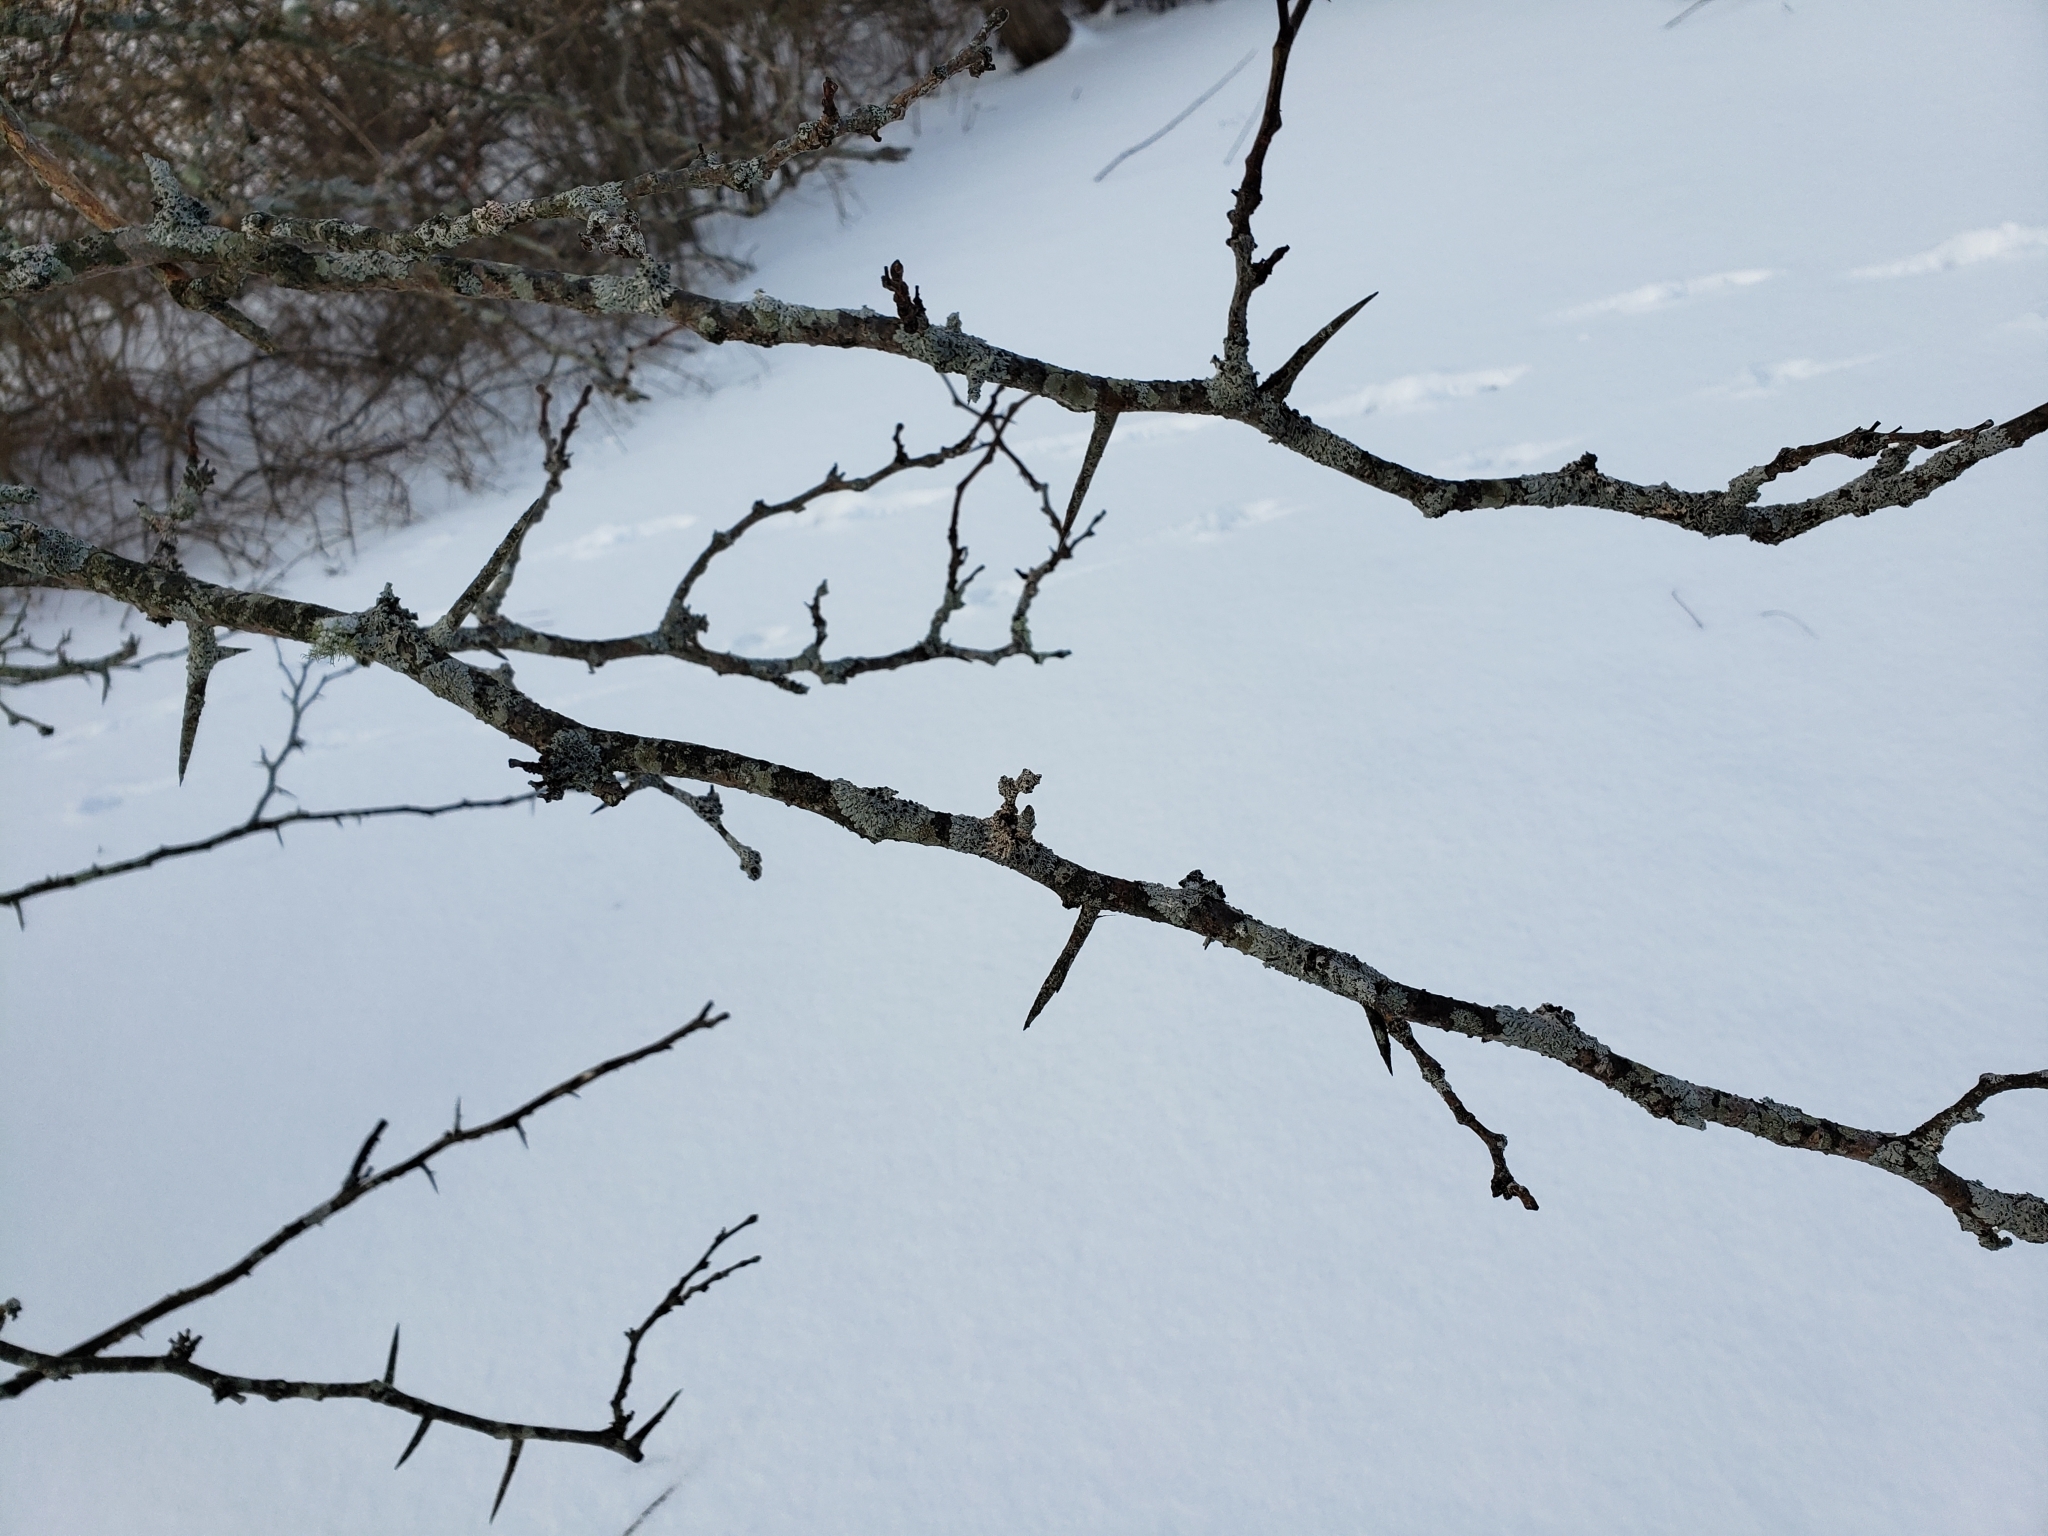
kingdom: Plantae
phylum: Tracheophyta
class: Magnoliopsida
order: Rosales
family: Rosaceae
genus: Crataegus
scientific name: Crataegus
